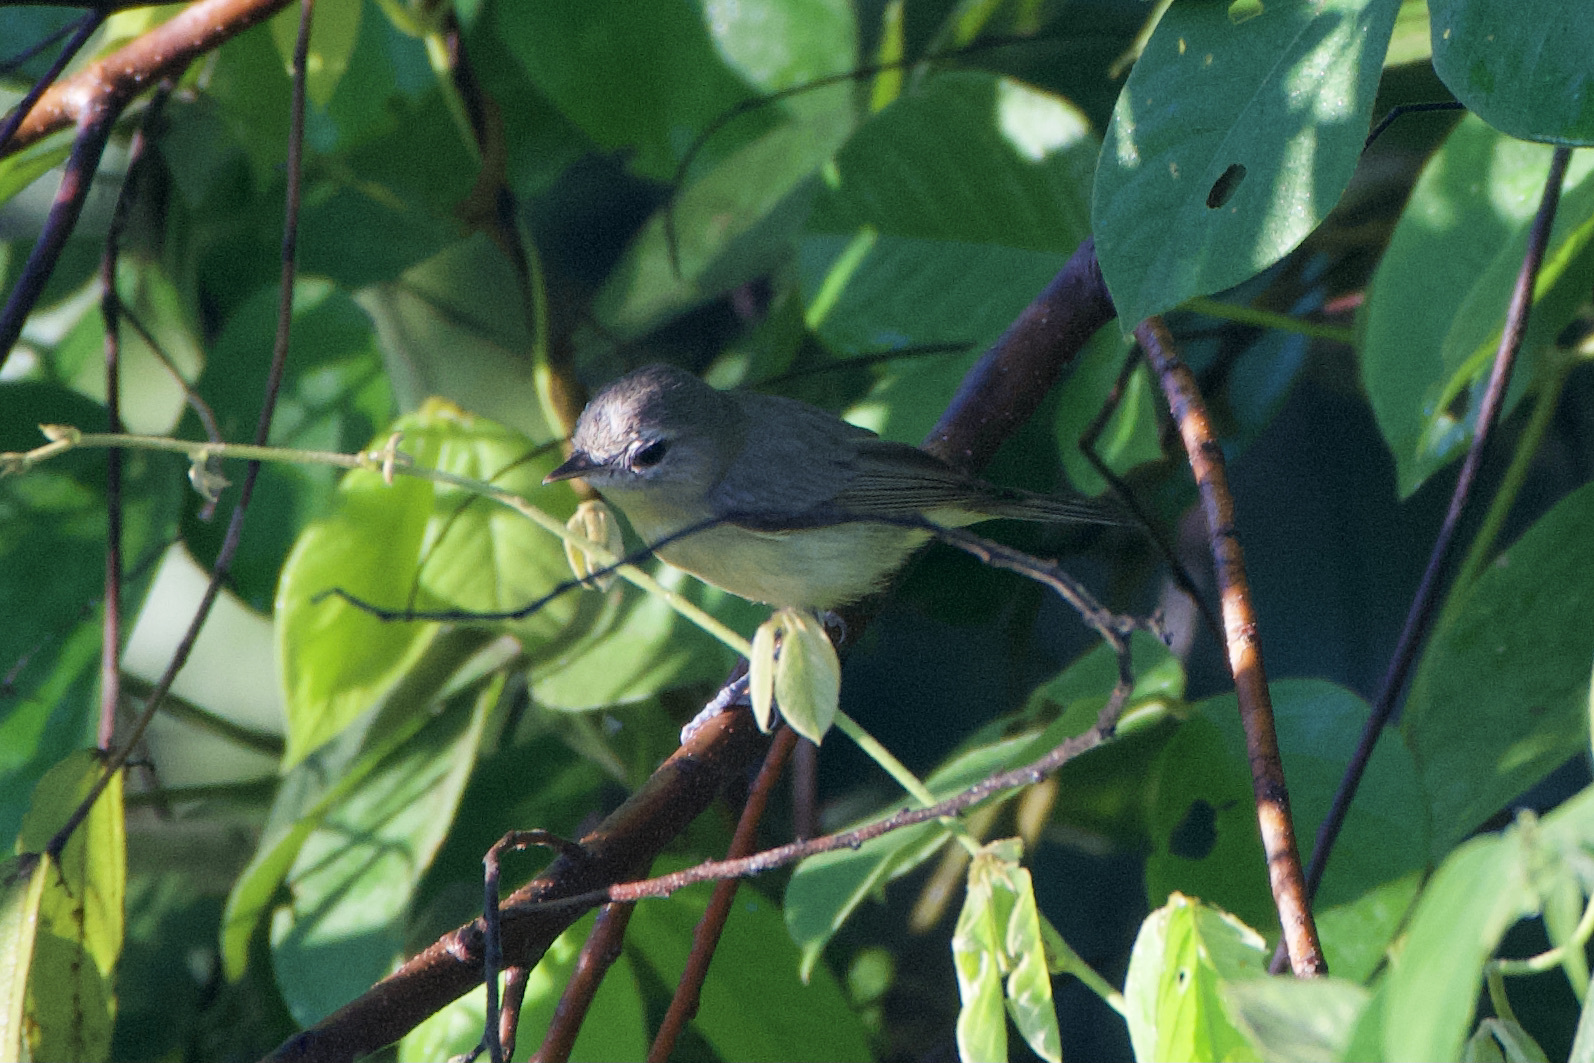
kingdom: Animalia
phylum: Chordata
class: Aves
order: Passeriformes
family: Vireonidae
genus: Vireo
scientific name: Vireo philadelphicus
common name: Philadelphia vireo
